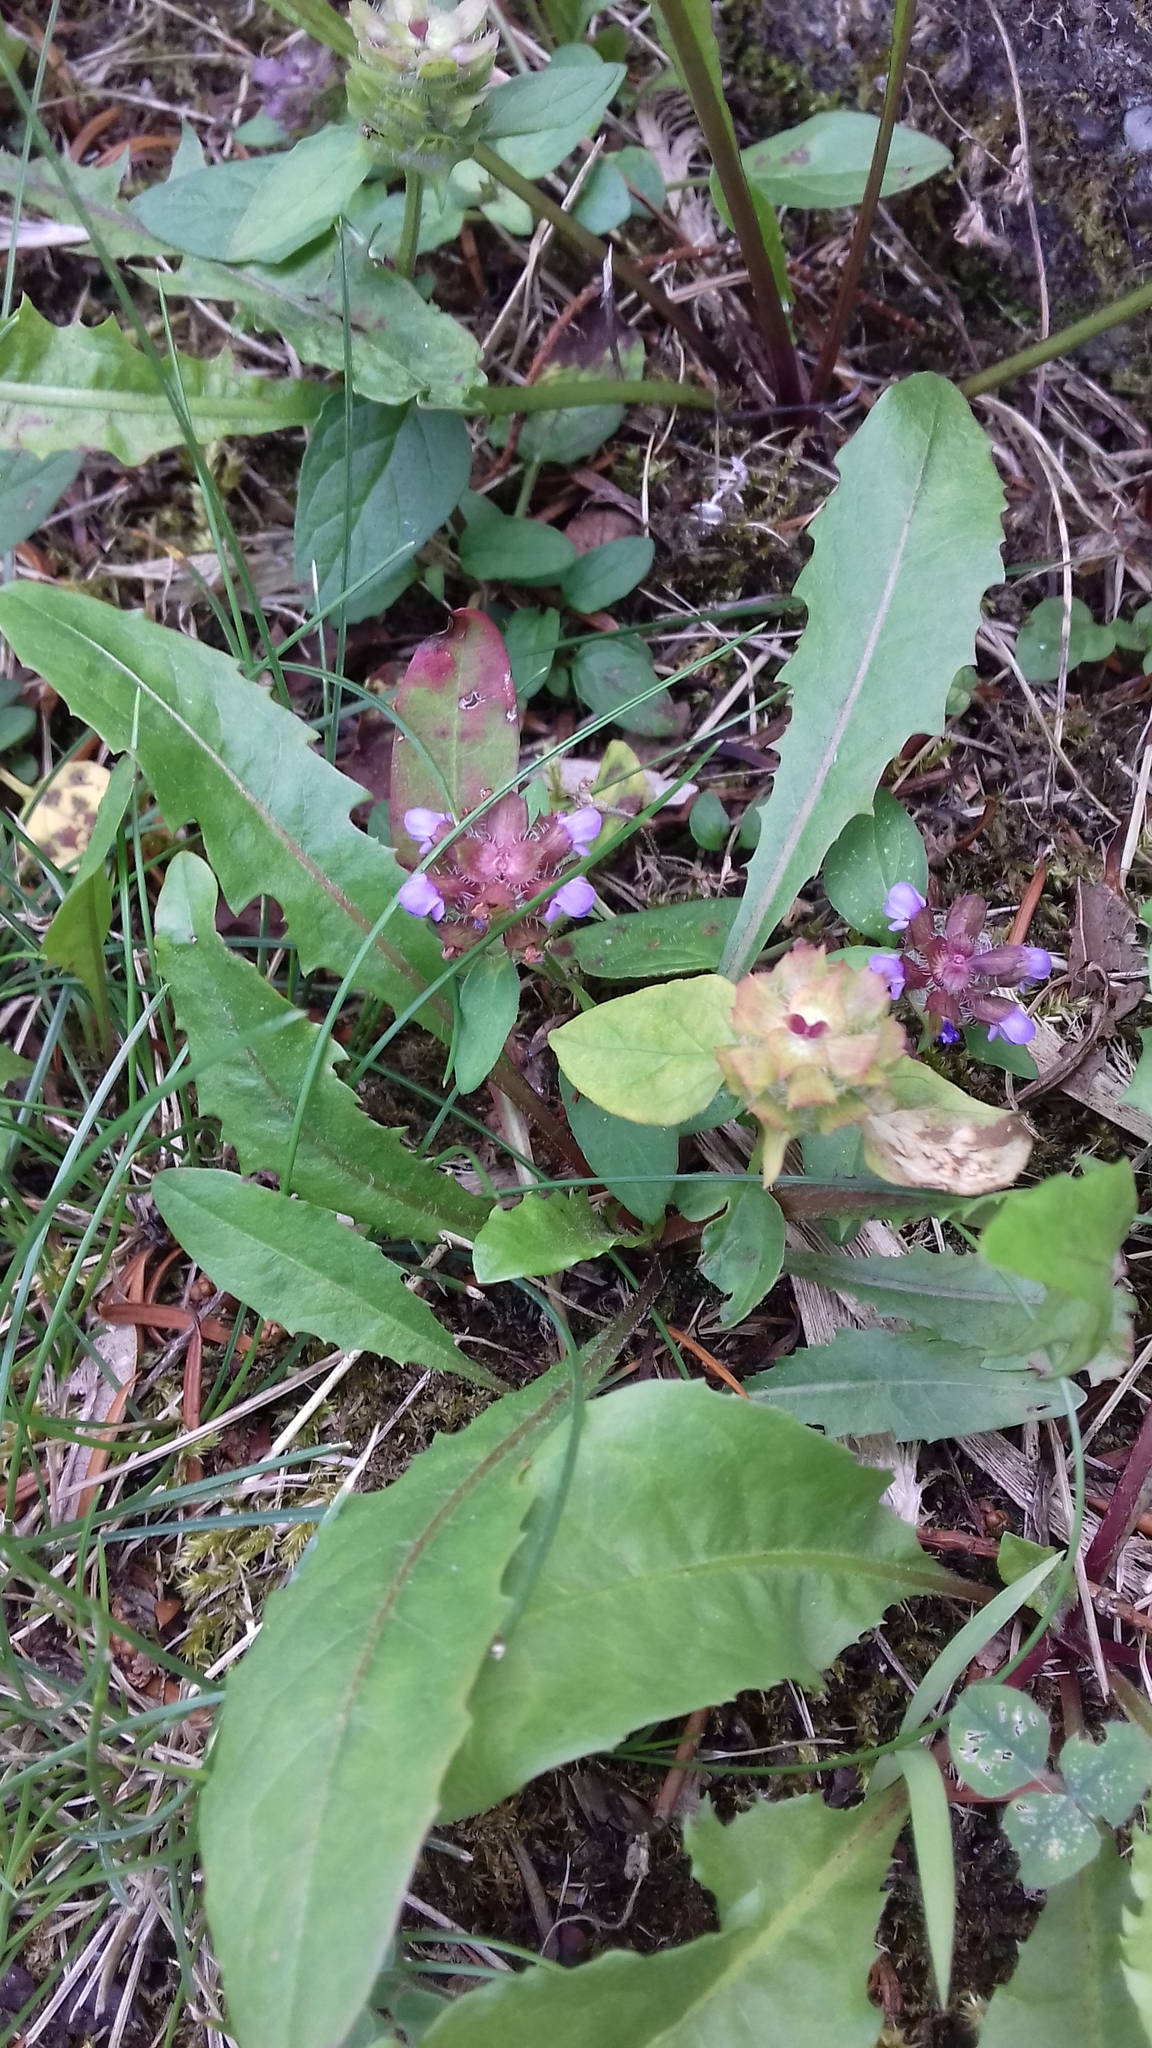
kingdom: Plantae
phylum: Tracheophyta
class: Magnoliopsida
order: Lamiales
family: Lamiaceae
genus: Prunella
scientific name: Prunella vulgaris
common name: Heal-all
